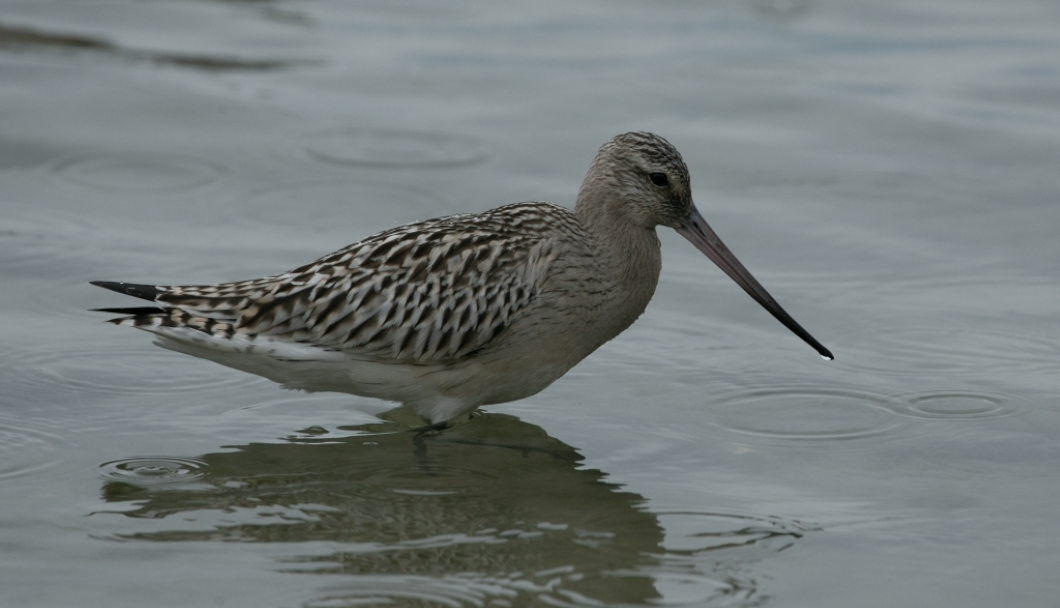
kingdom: Animalia
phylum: Chordata
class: Aves
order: Charadriiformes
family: Scolopacidae
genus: Limosa
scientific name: Limosa lapponica
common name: Bar-tailed godwit
